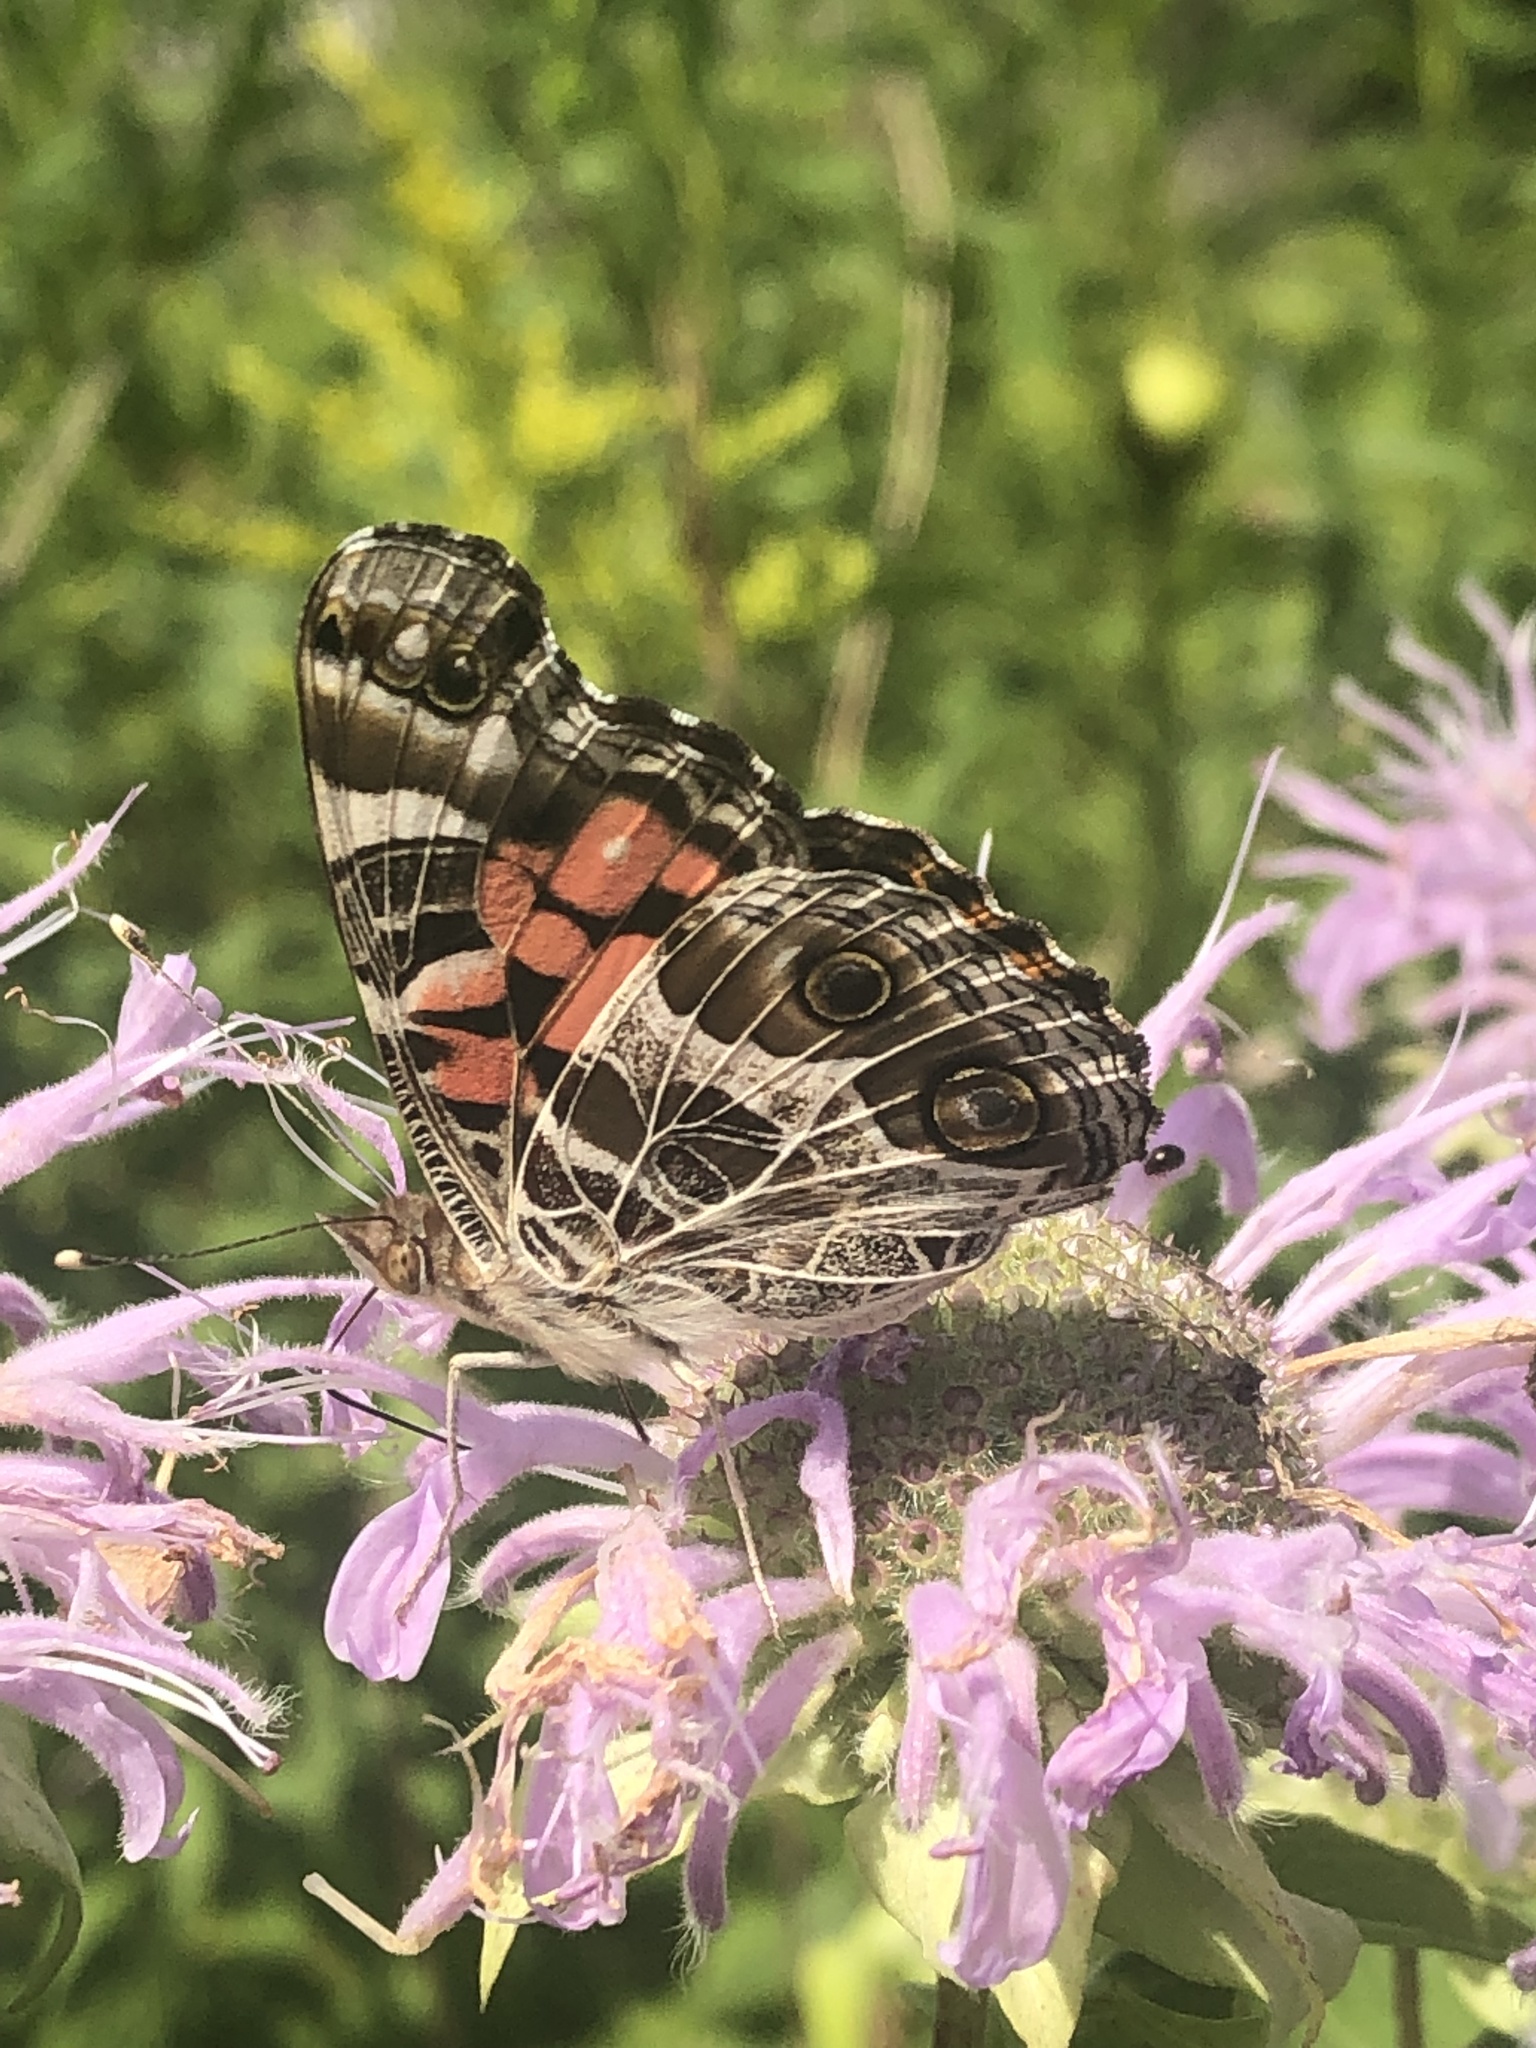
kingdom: Animalia
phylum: Arthropoda
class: Insecta
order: Lepidoptera
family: Nymphalidae
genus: Vanessa
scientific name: Vanessa virginiensis
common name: American lady
